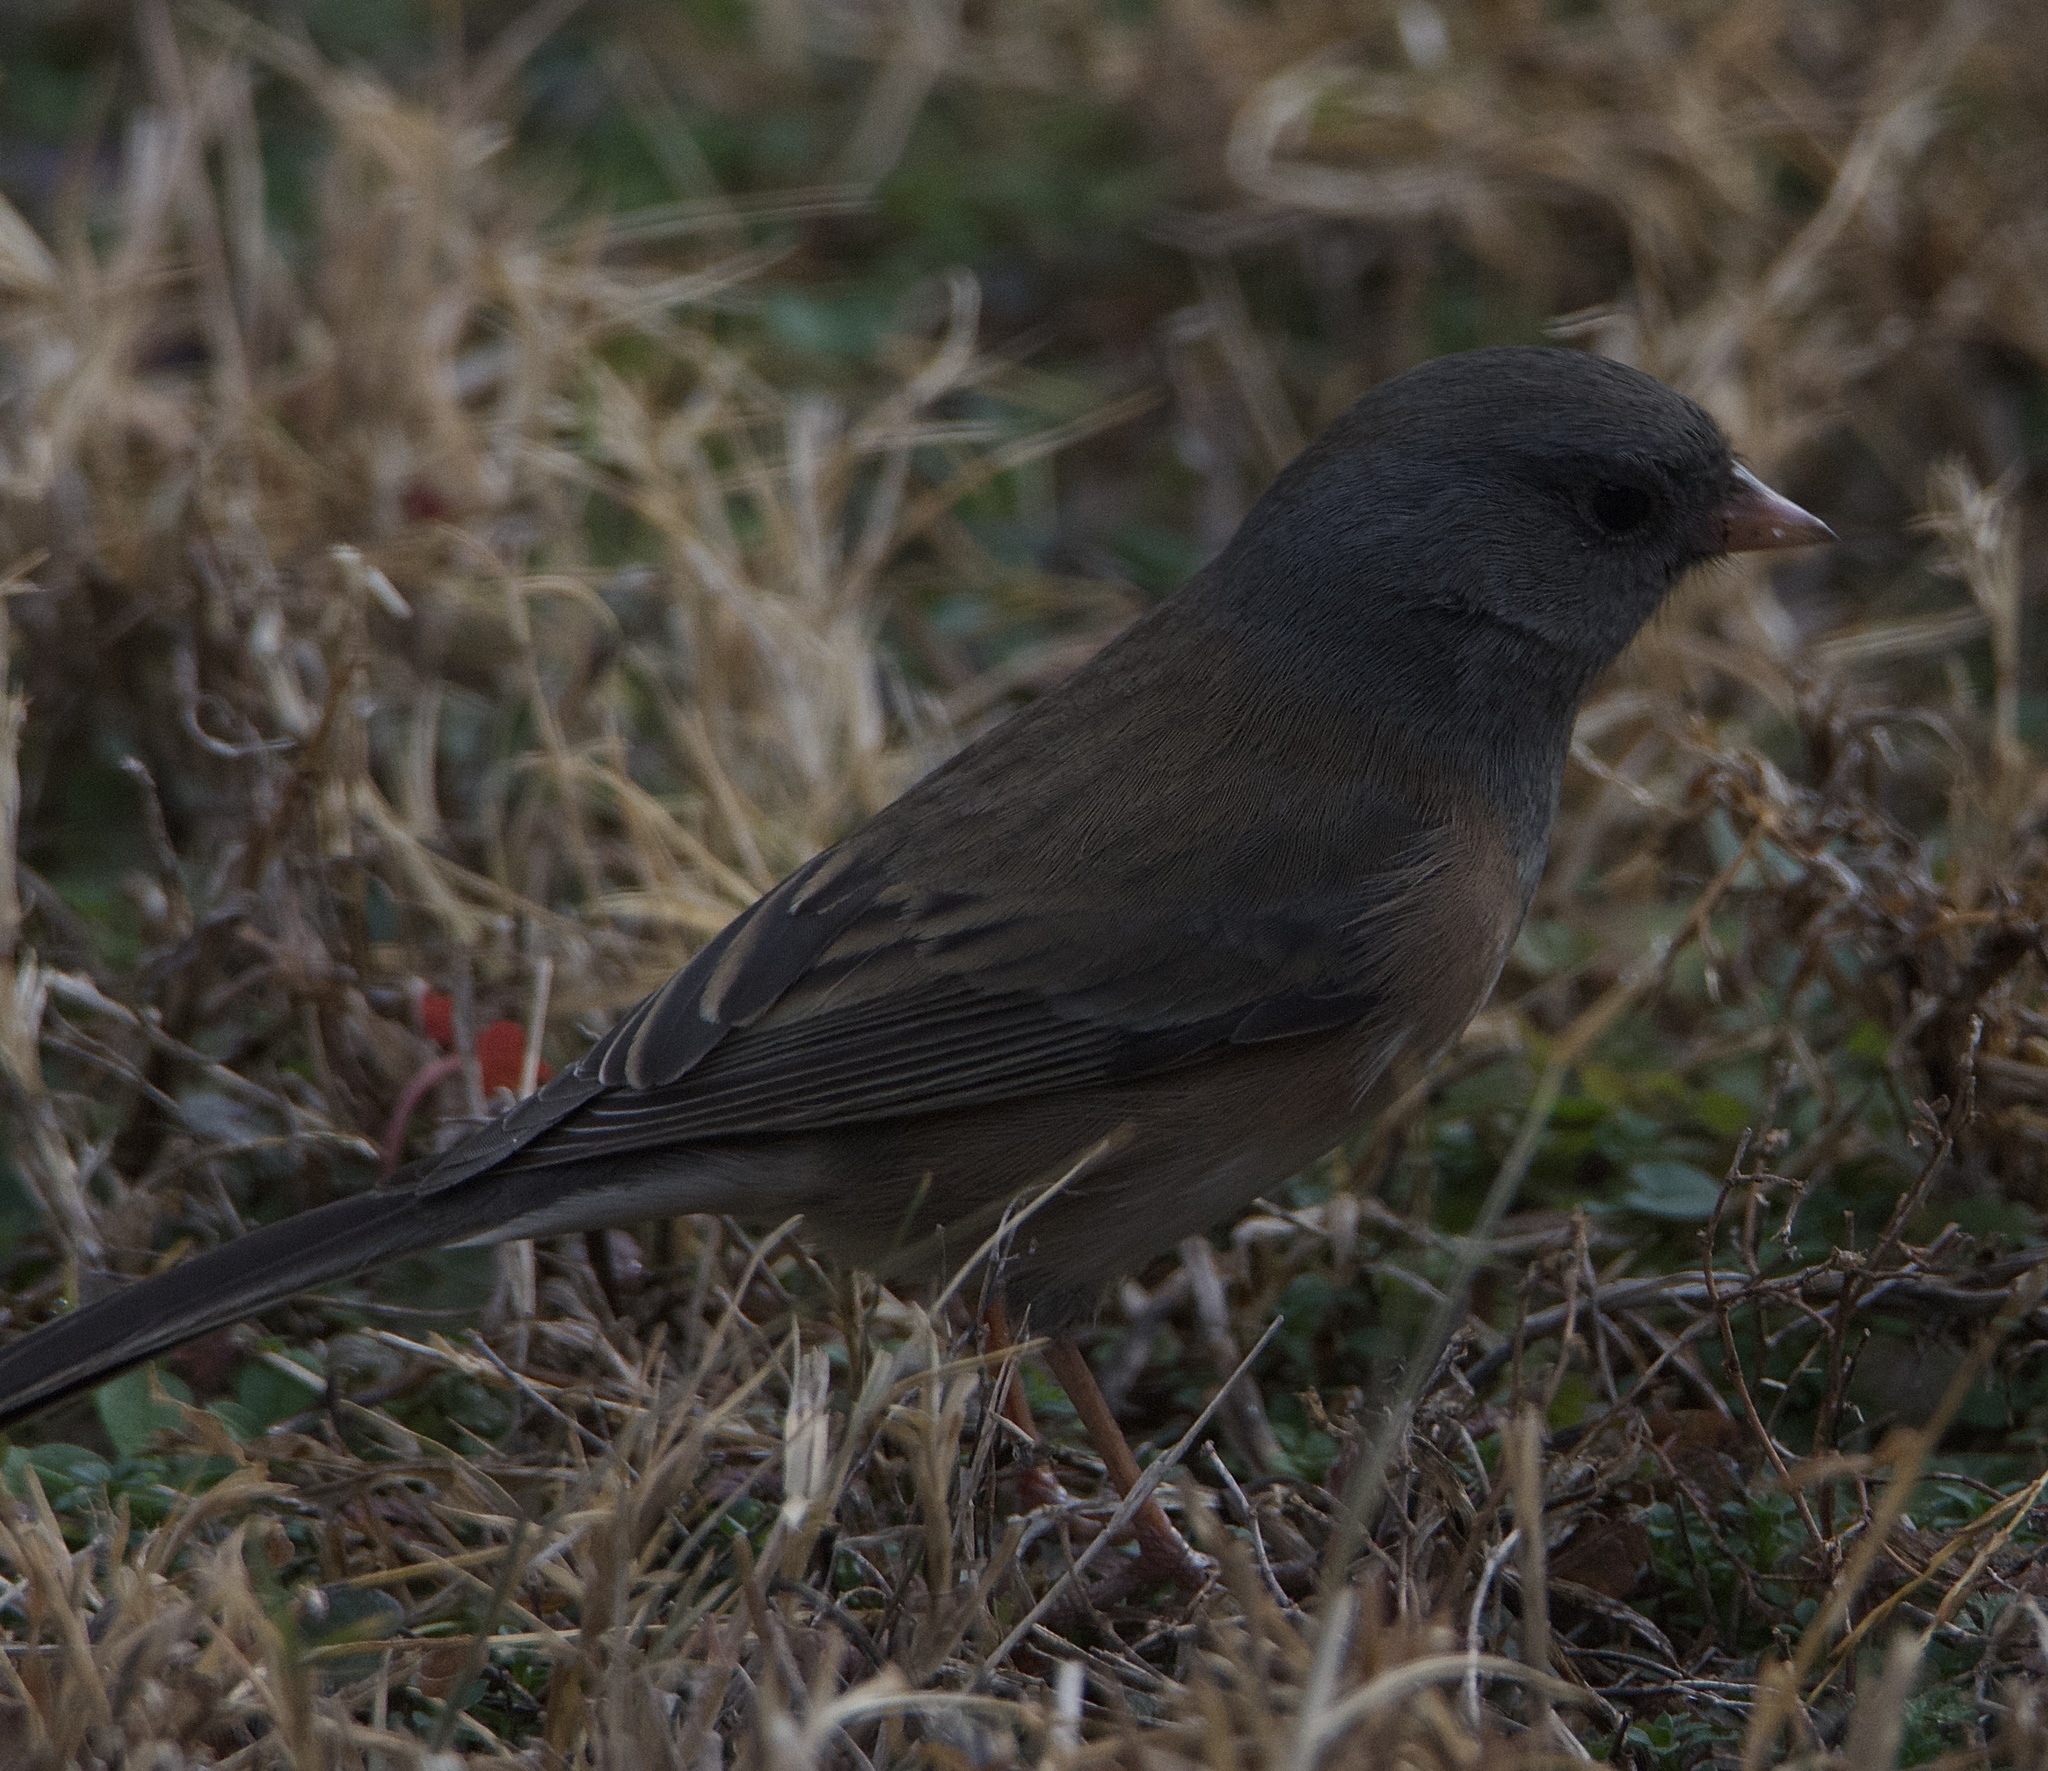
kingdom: Animalia
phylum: Chordata
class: Aves
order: Passeriformes
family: Passerellidae
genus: Junco
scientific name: Junco hyemalis
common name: Dark-eyed junco
